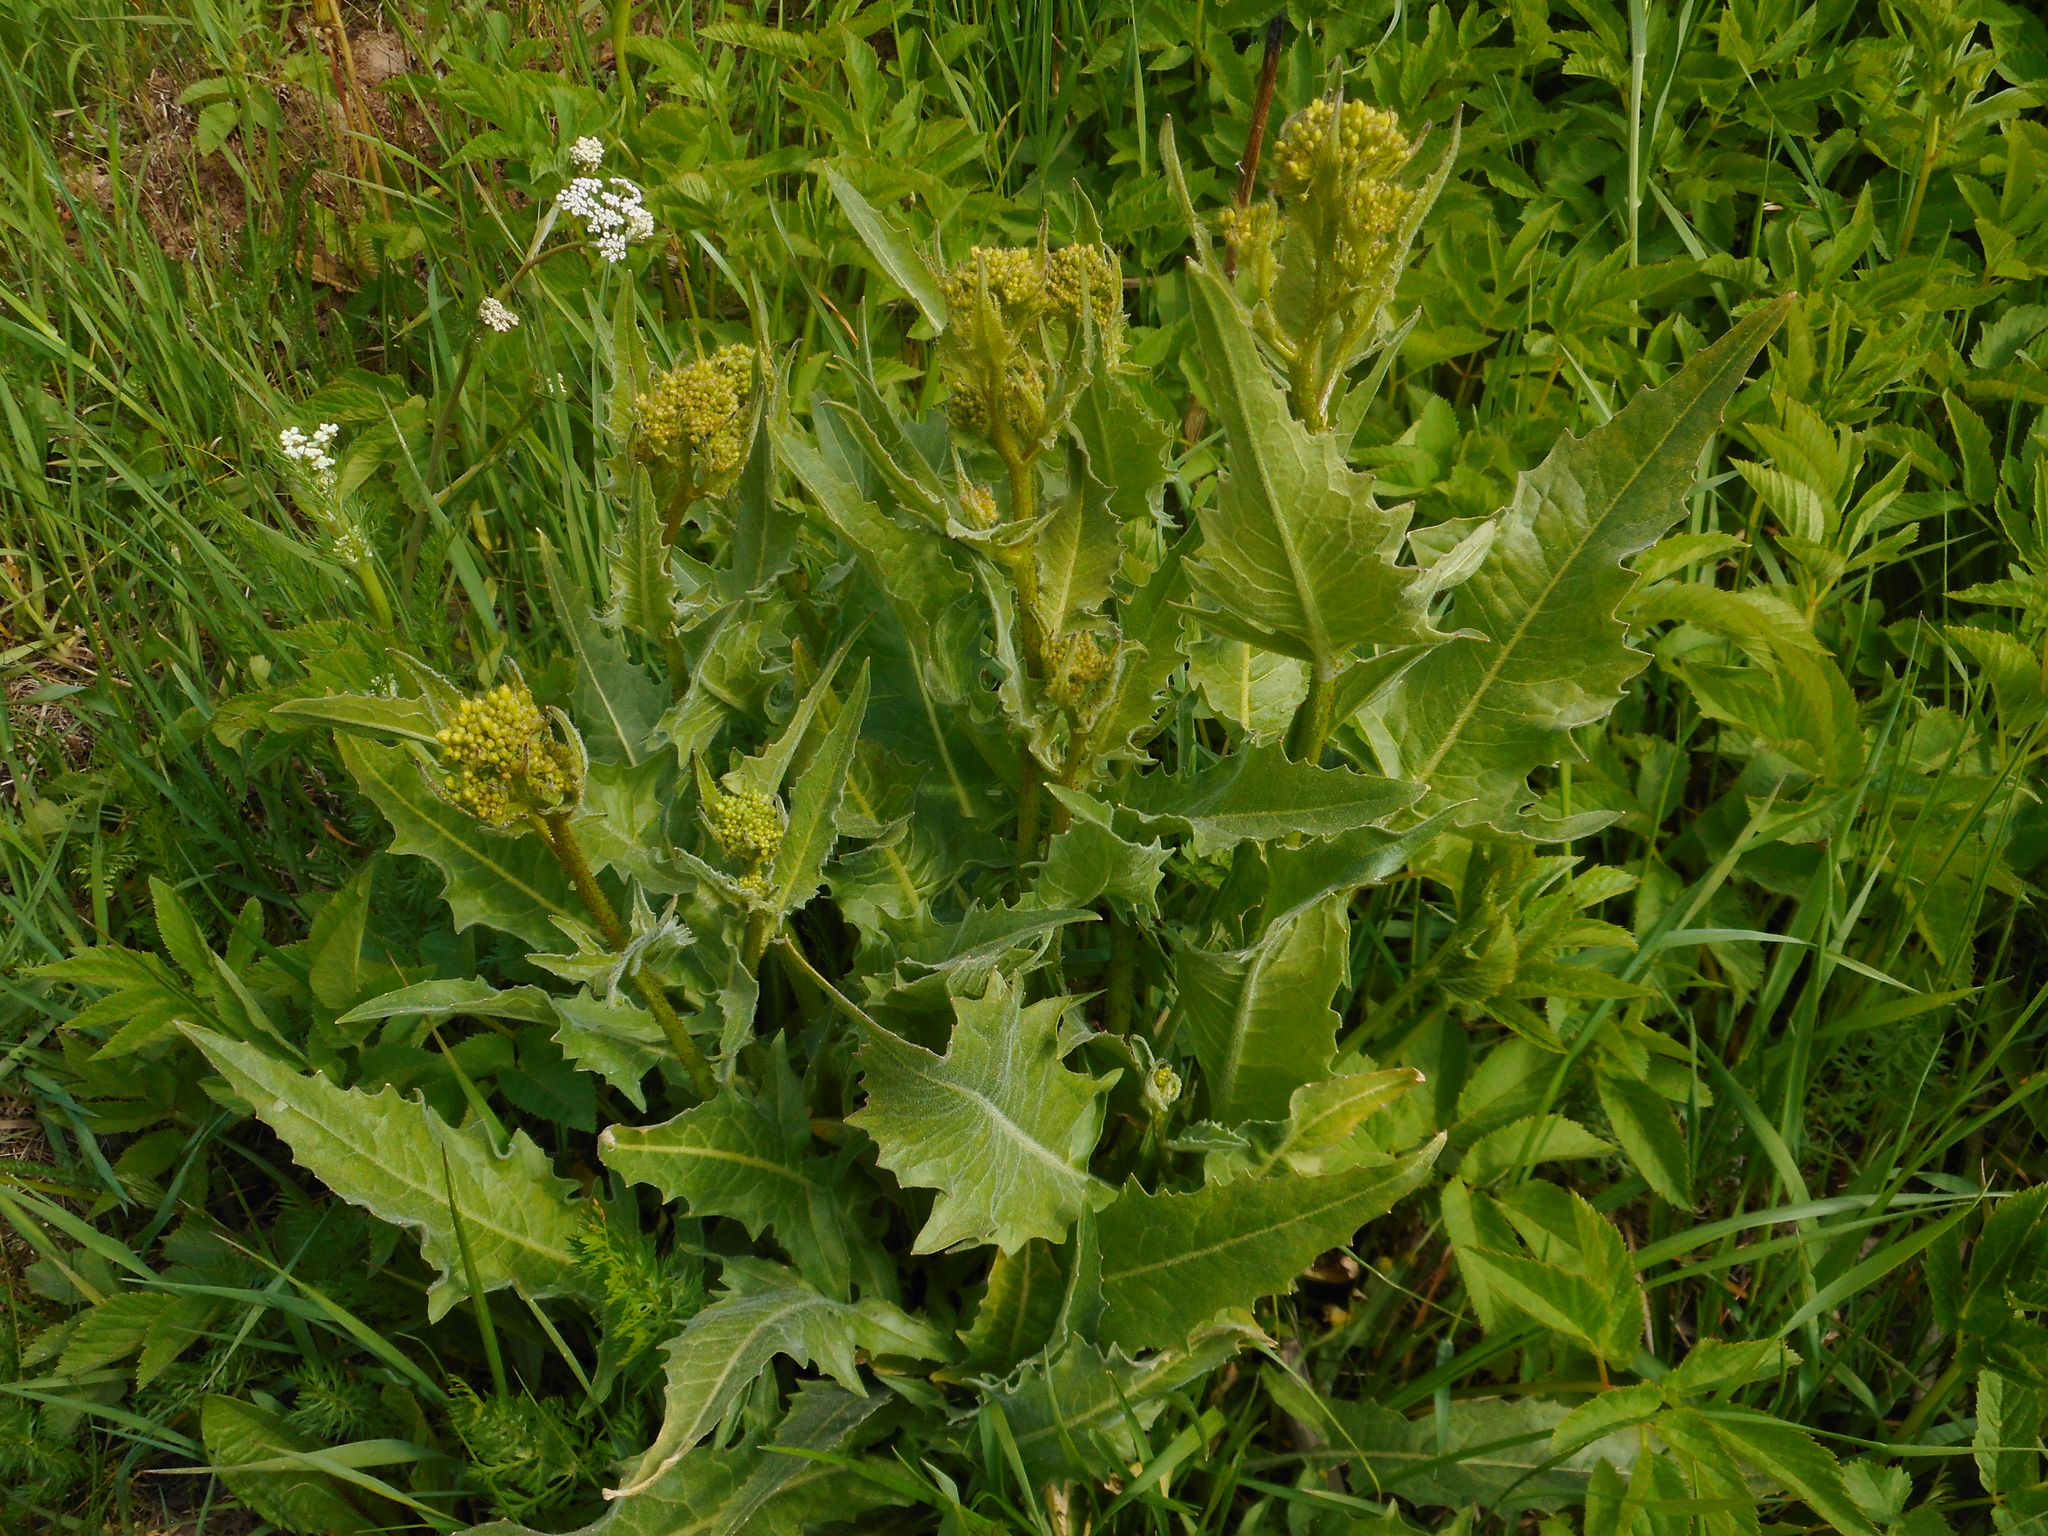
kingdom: Plantae
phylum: Tracheophyta
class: Magnoliopsida
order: Brassicales
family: Brassicaceae
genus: Bunias
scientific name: Bunias orientalis
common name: Warty-cabbage
